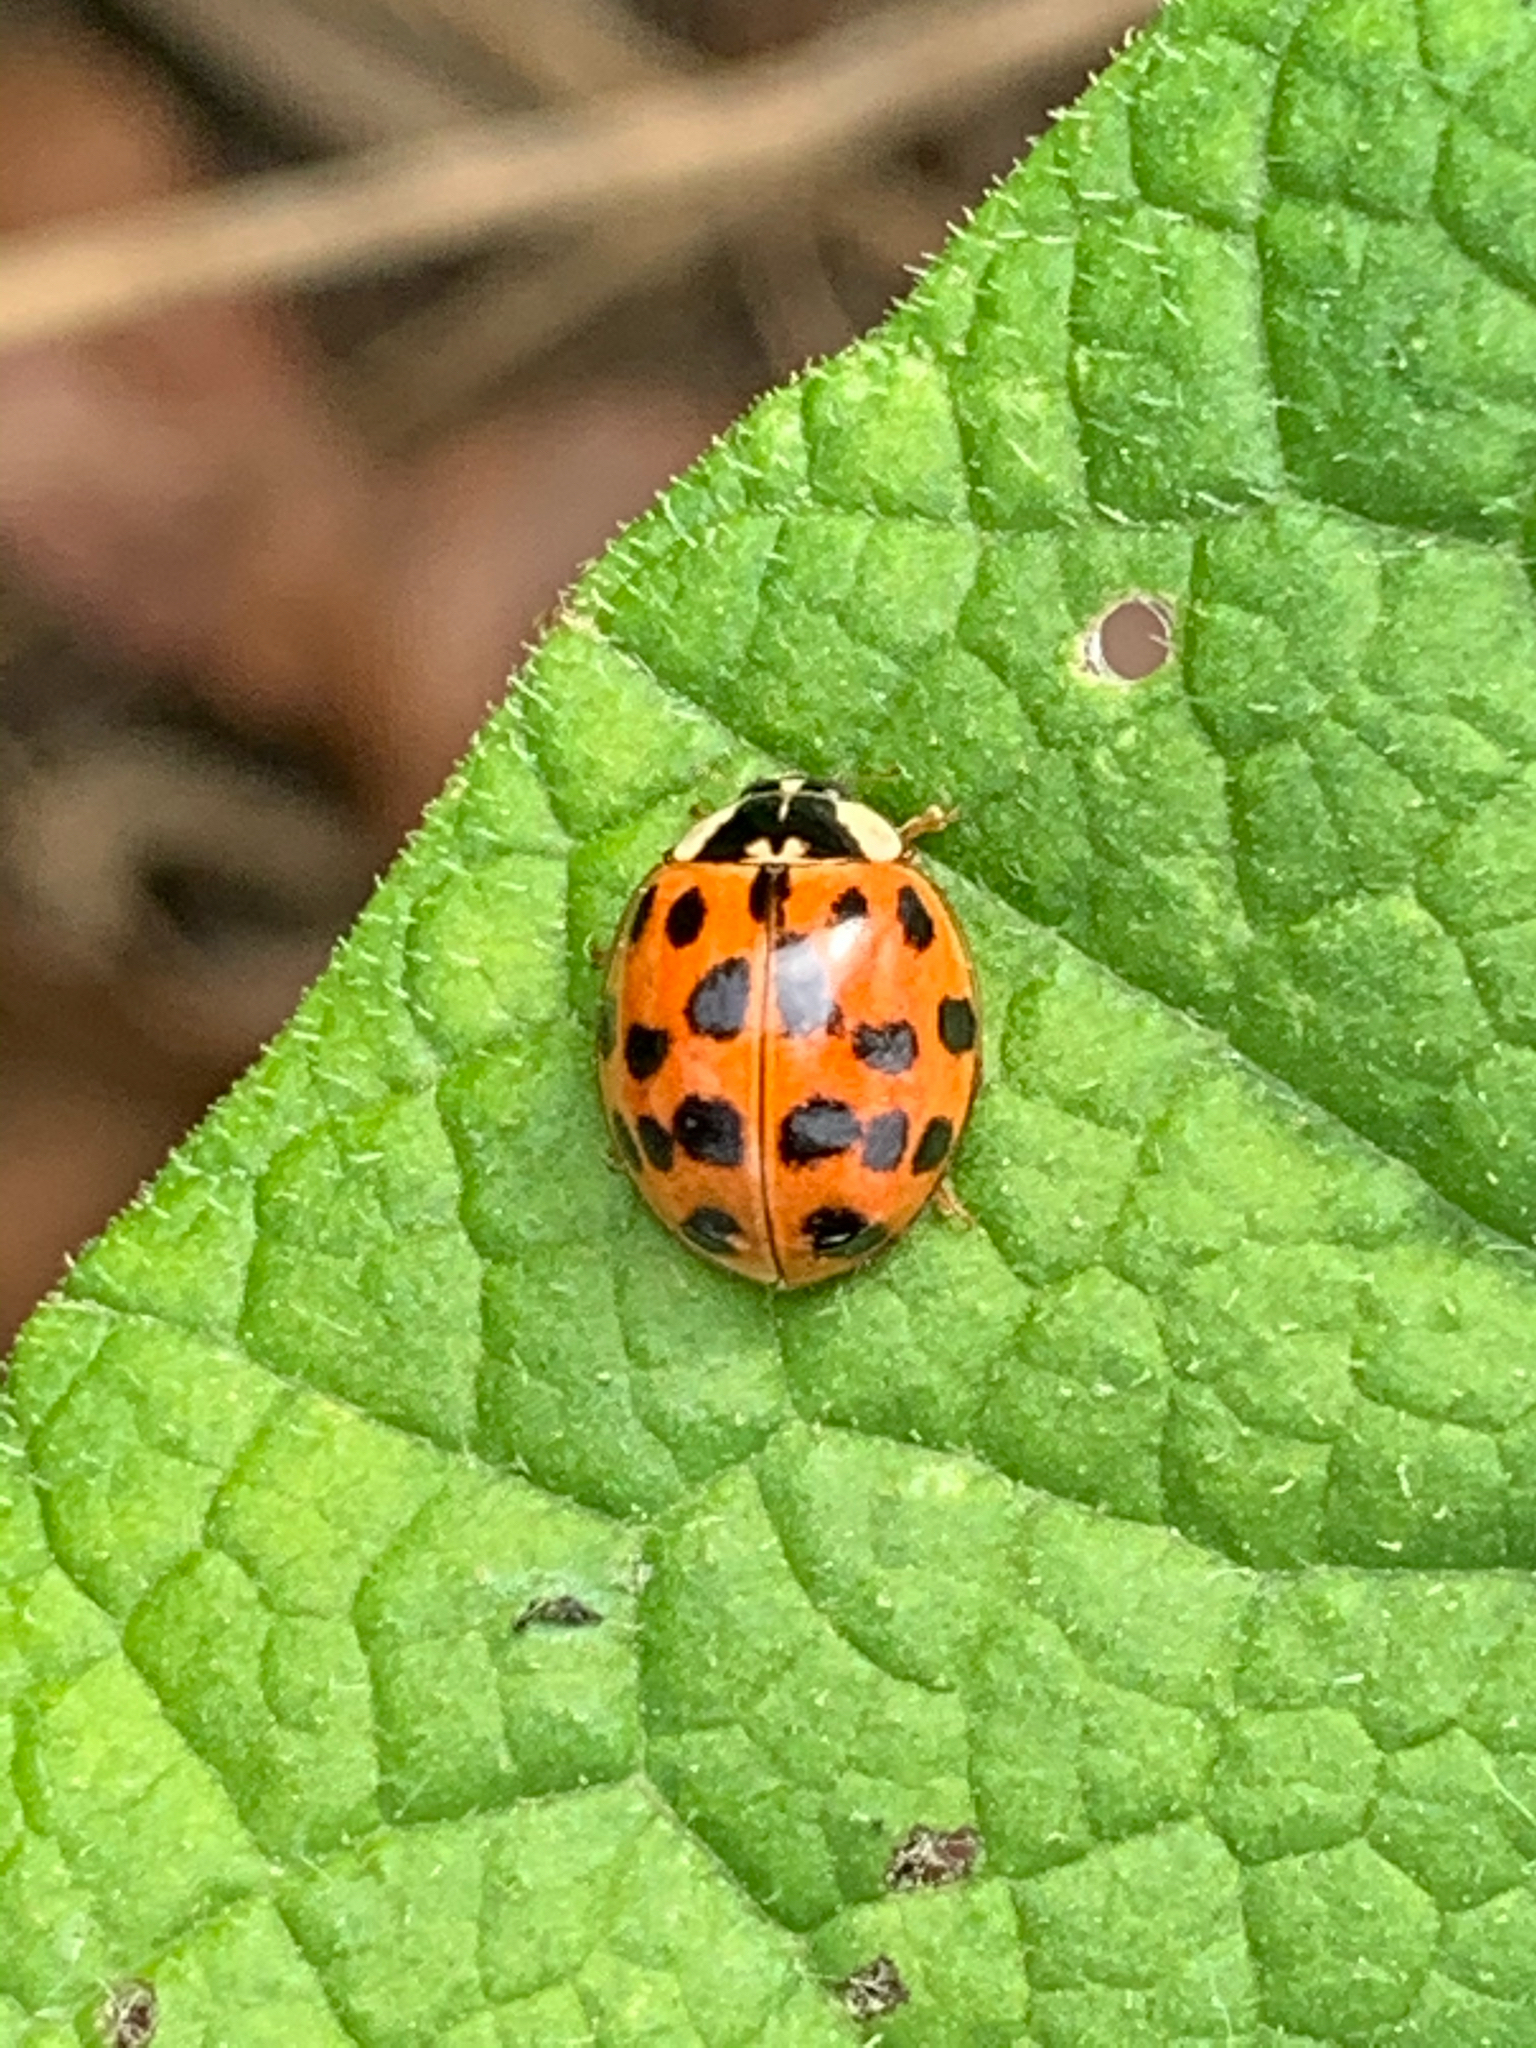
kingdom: Animalia
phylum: Arthropoda
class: Insecta
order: Coleoptera
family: Coccinellidae
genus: Harmonia
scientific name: Harmonia axyridis
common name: Harlequin ladybird
